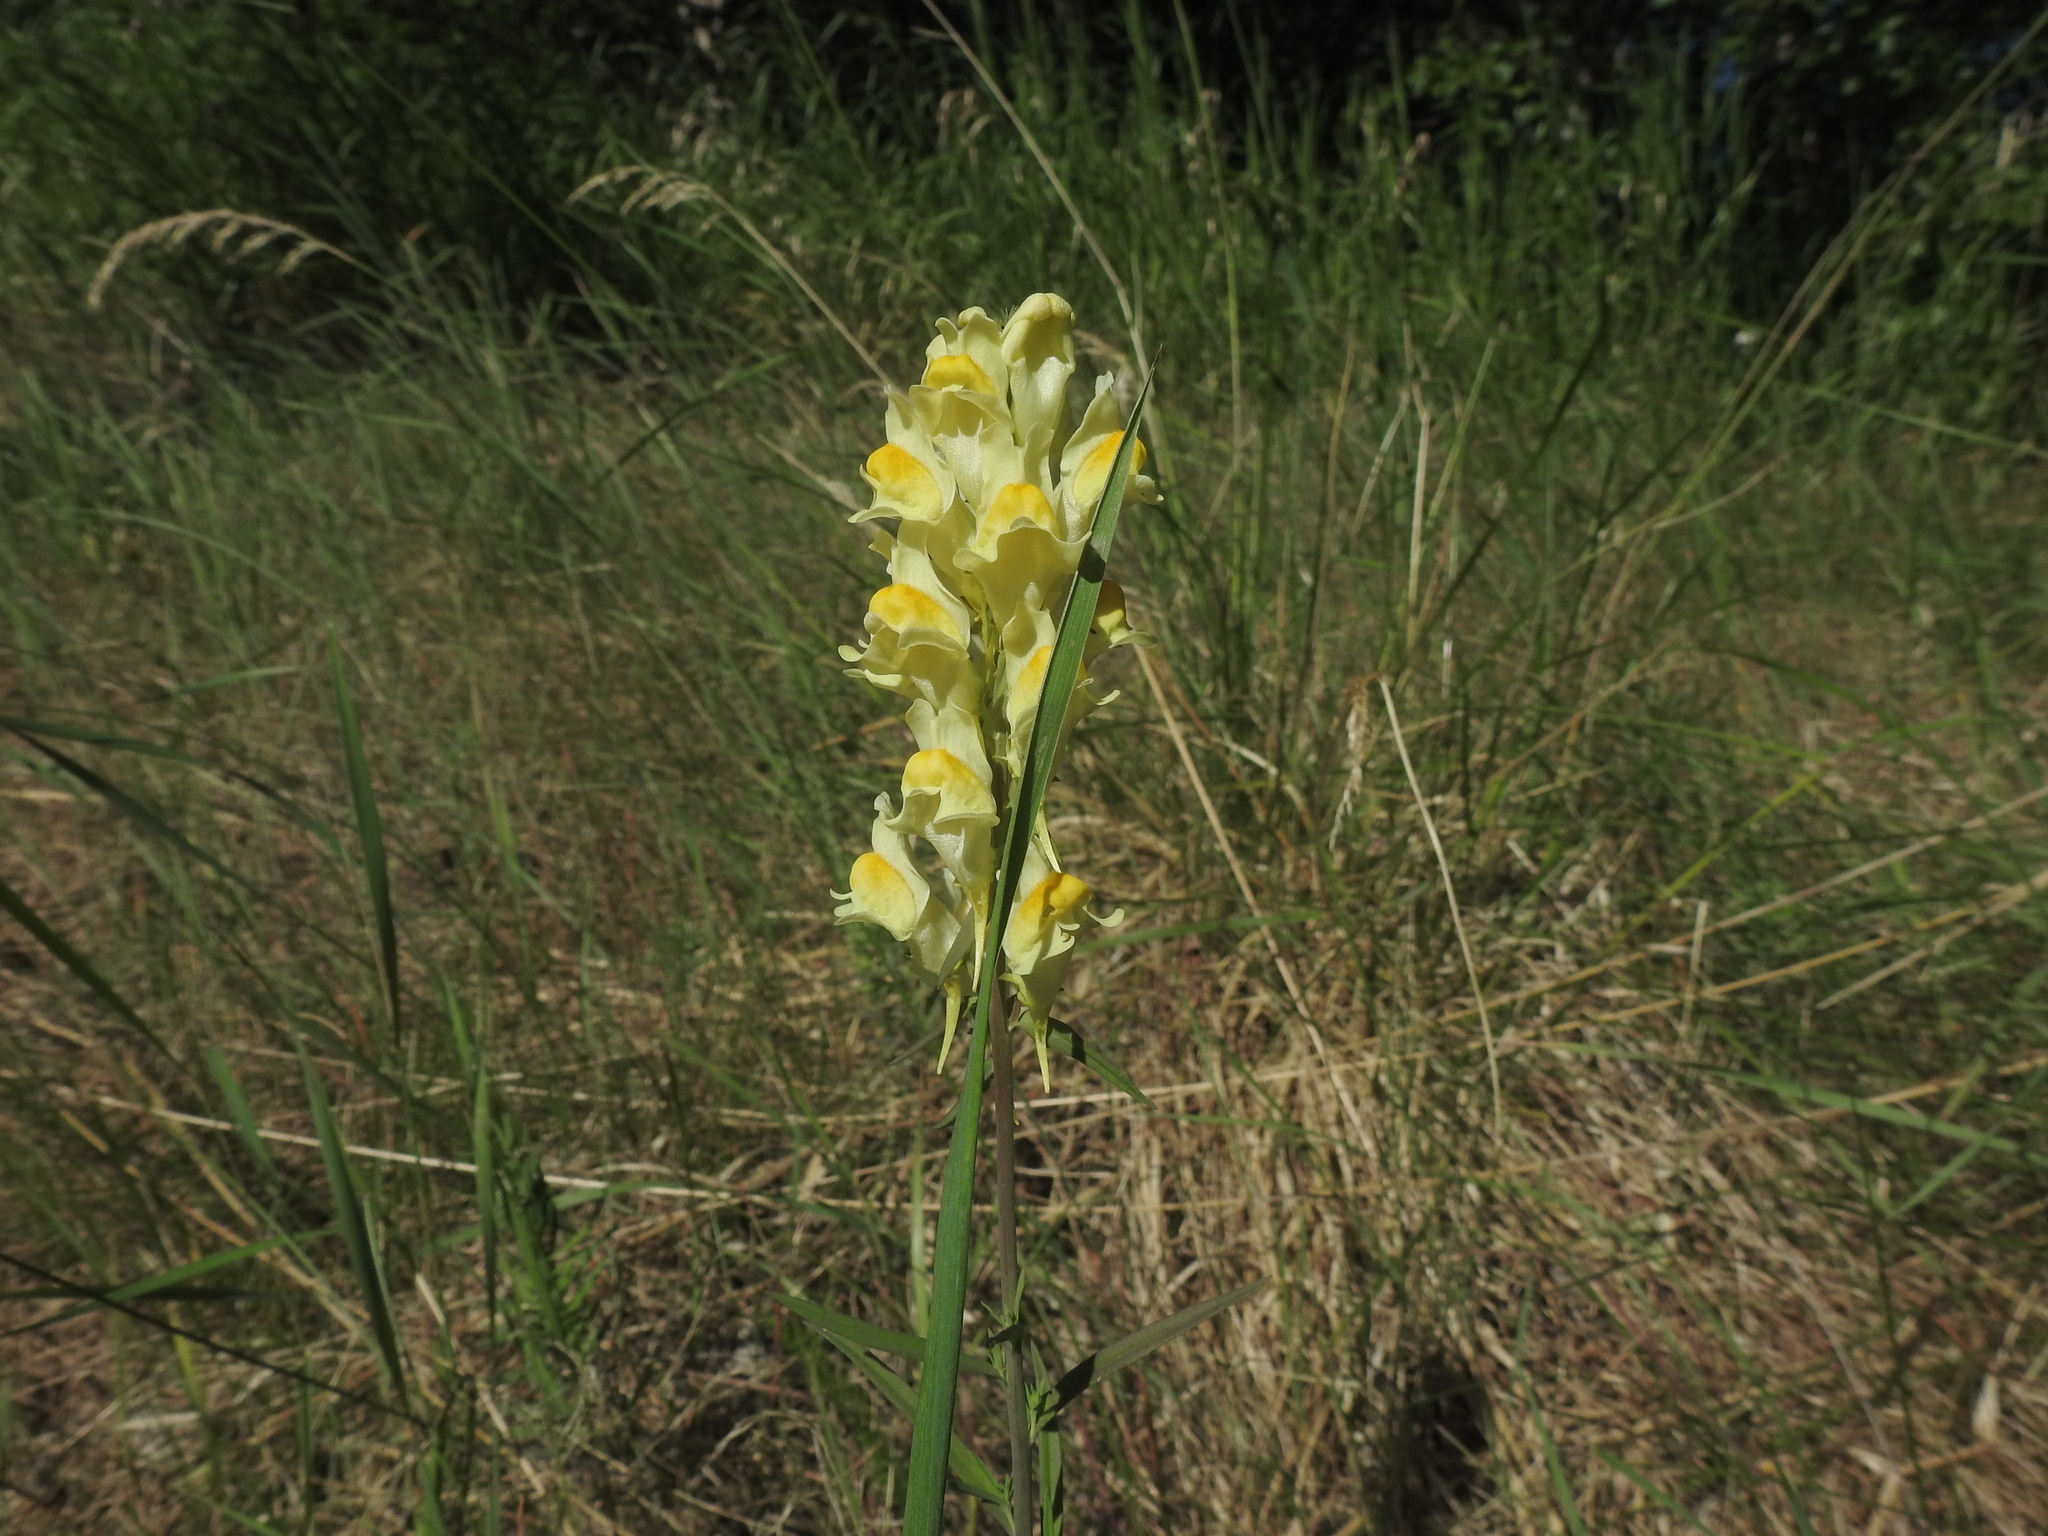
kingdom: Plantae
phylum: Tracheophyta
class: Magnoliopsida
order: Lamiales
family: Plantaginaceae
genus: Linaria
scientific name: Linaria vulgaris
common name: Butter and eggs
